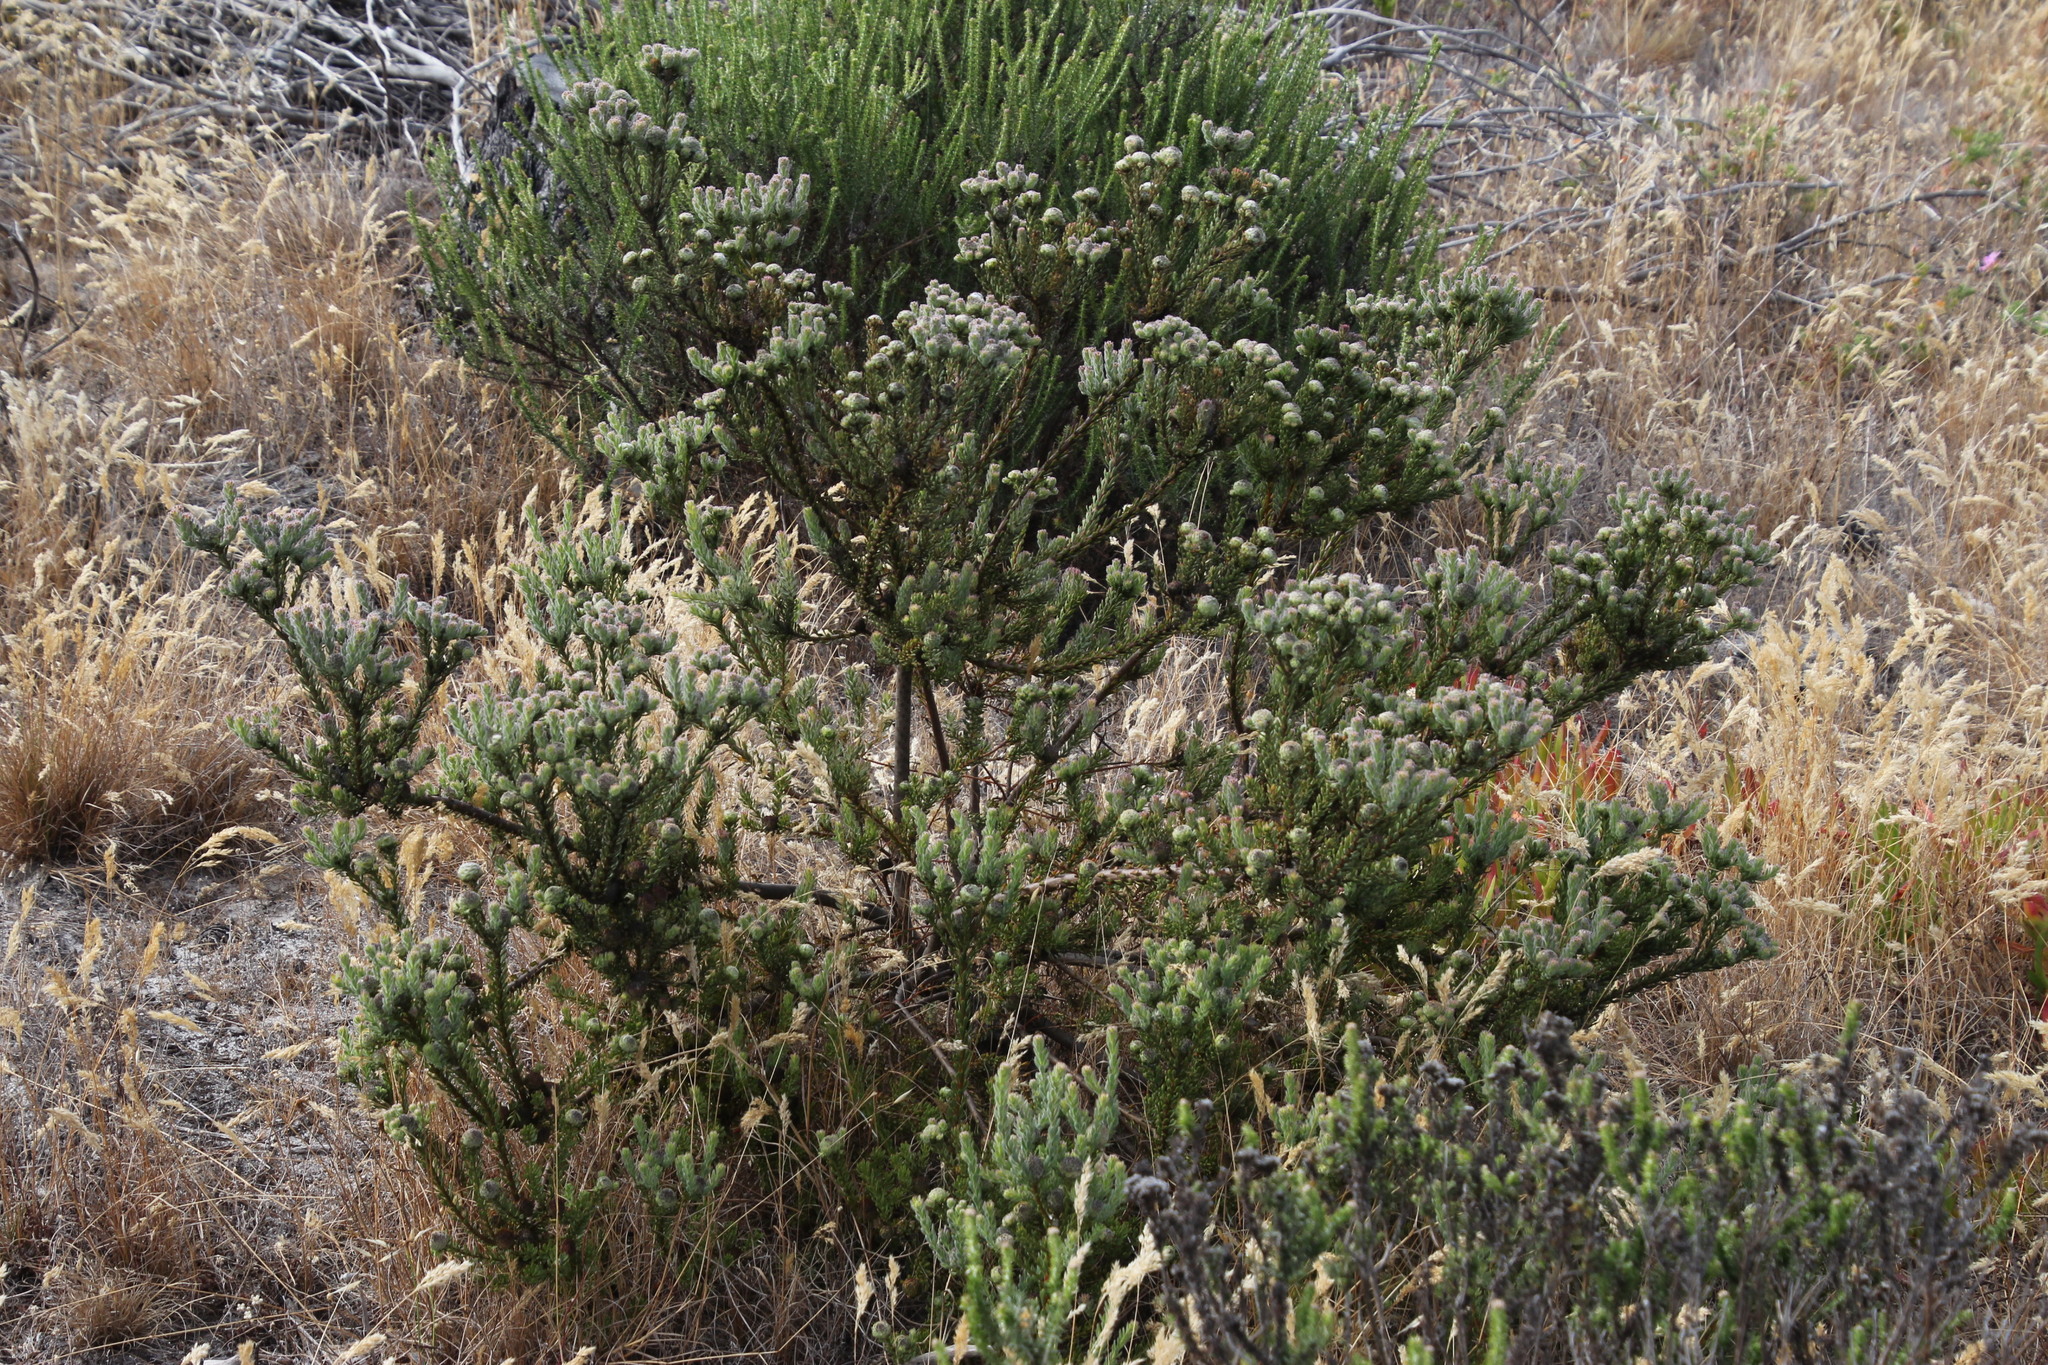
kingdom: Plantae
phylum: Tracheophyta
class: Magnoliopsida
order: Proteales
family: Proteaceae
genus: Leucadendron
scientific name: Leucadendron levisanus
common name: Cape flats conebush
